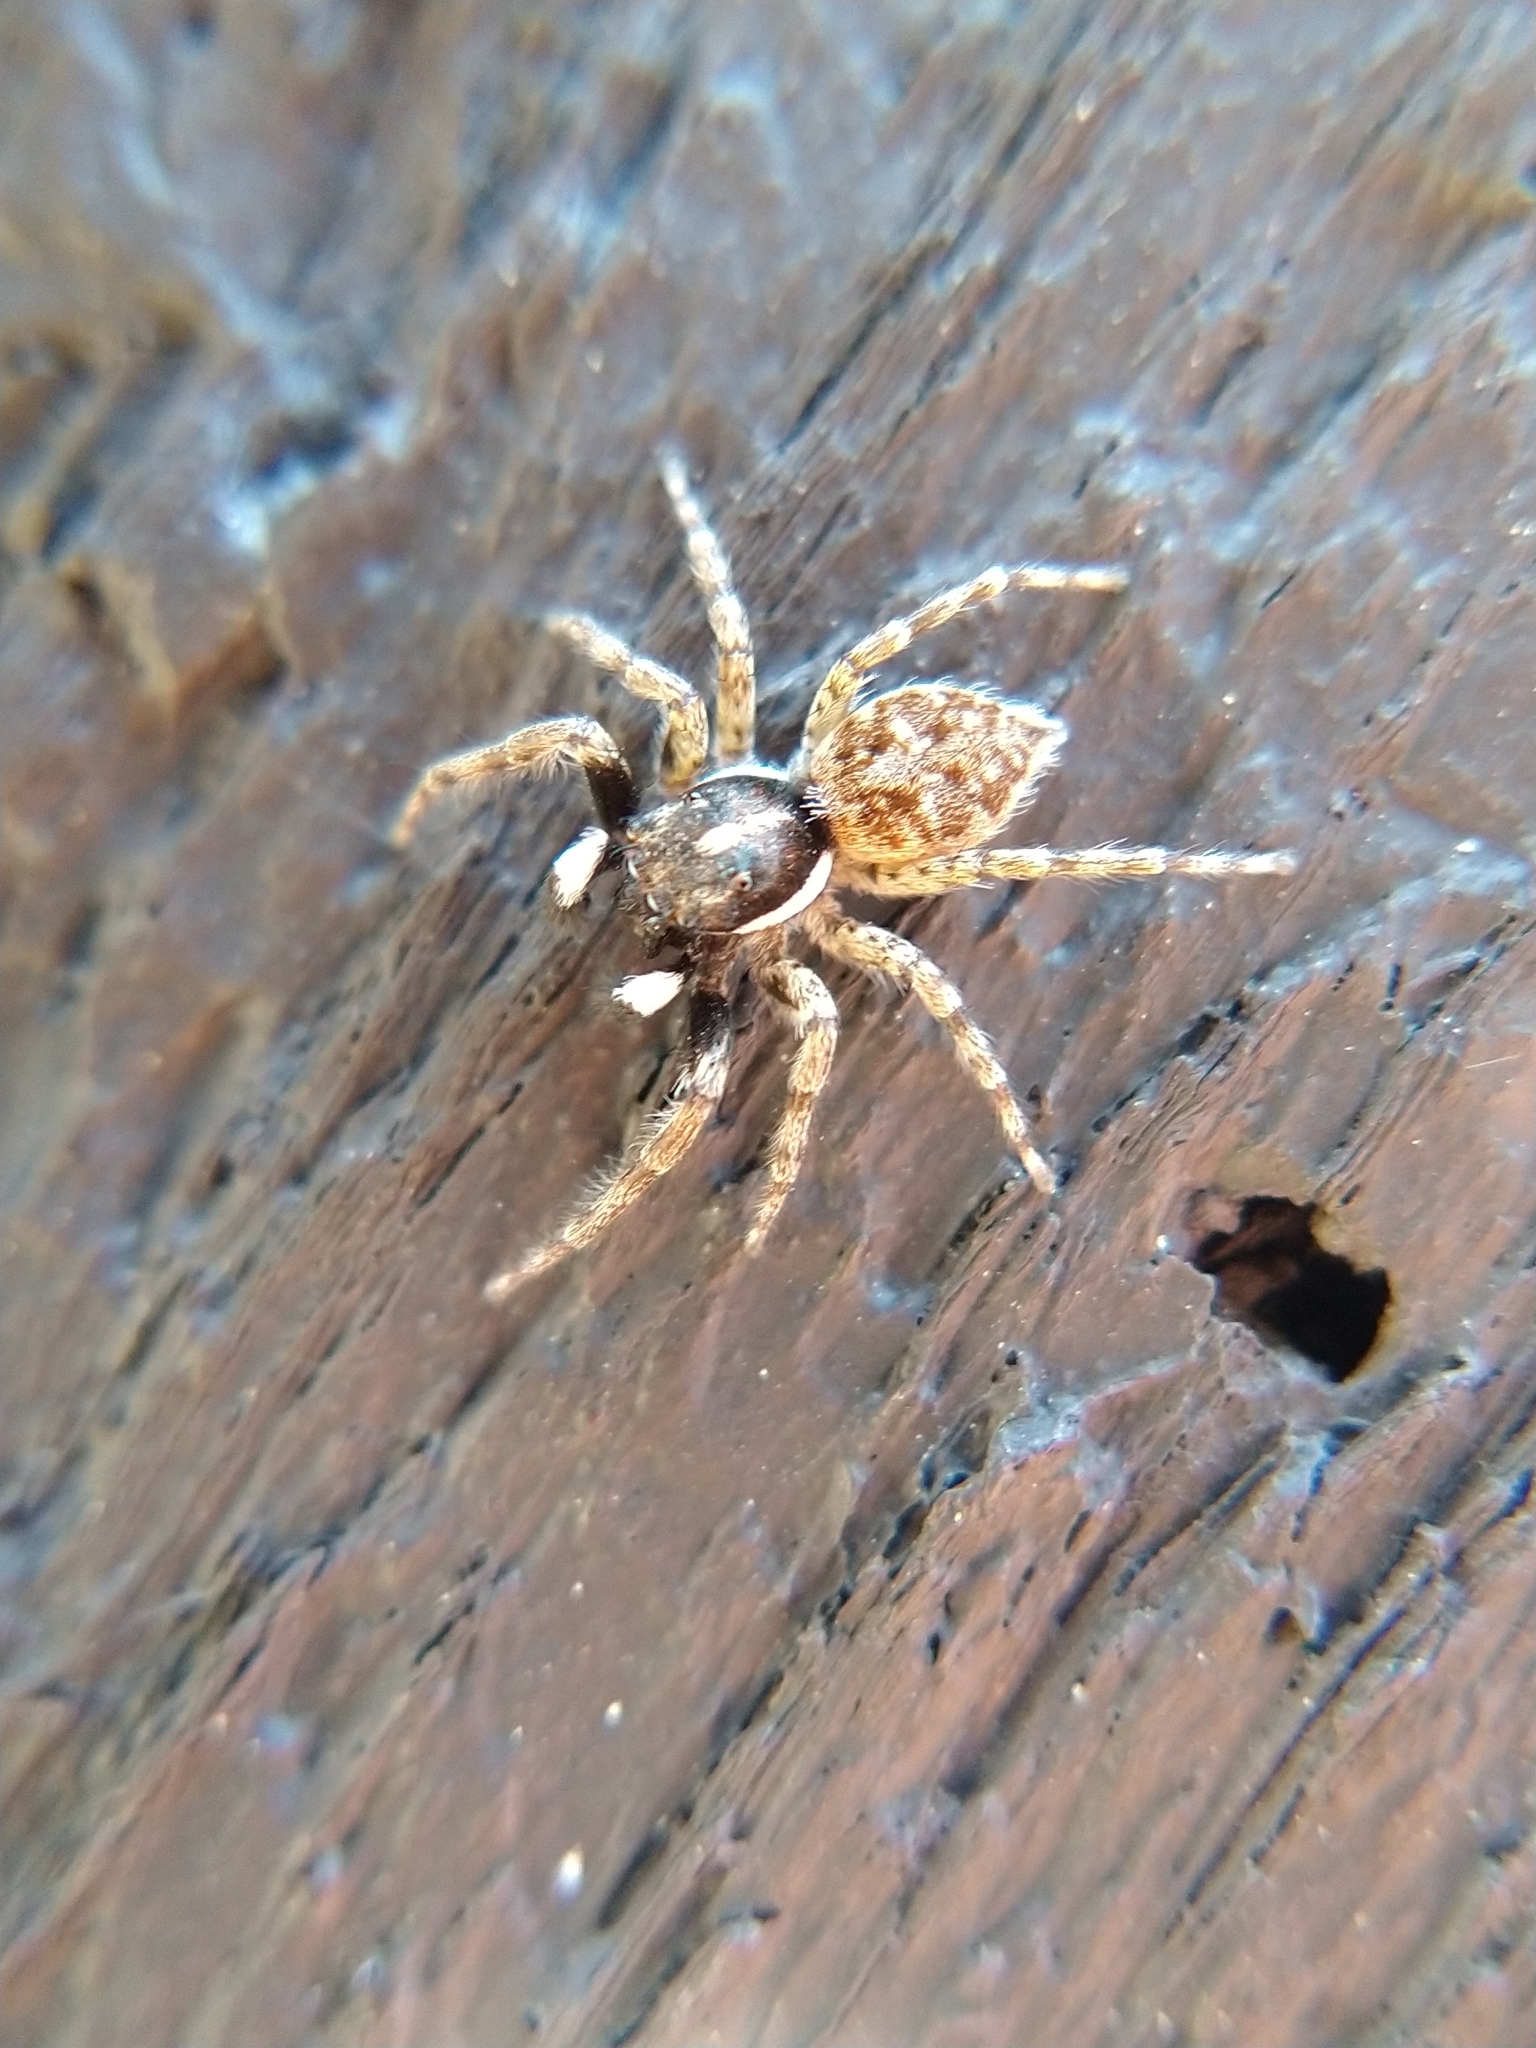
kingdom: Animalia
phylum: Arthropoda
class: Arachnida
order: Araneae
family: Salticidae
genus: Menemerus
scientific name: Menemerus semilimbatus
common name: Jumping spider
